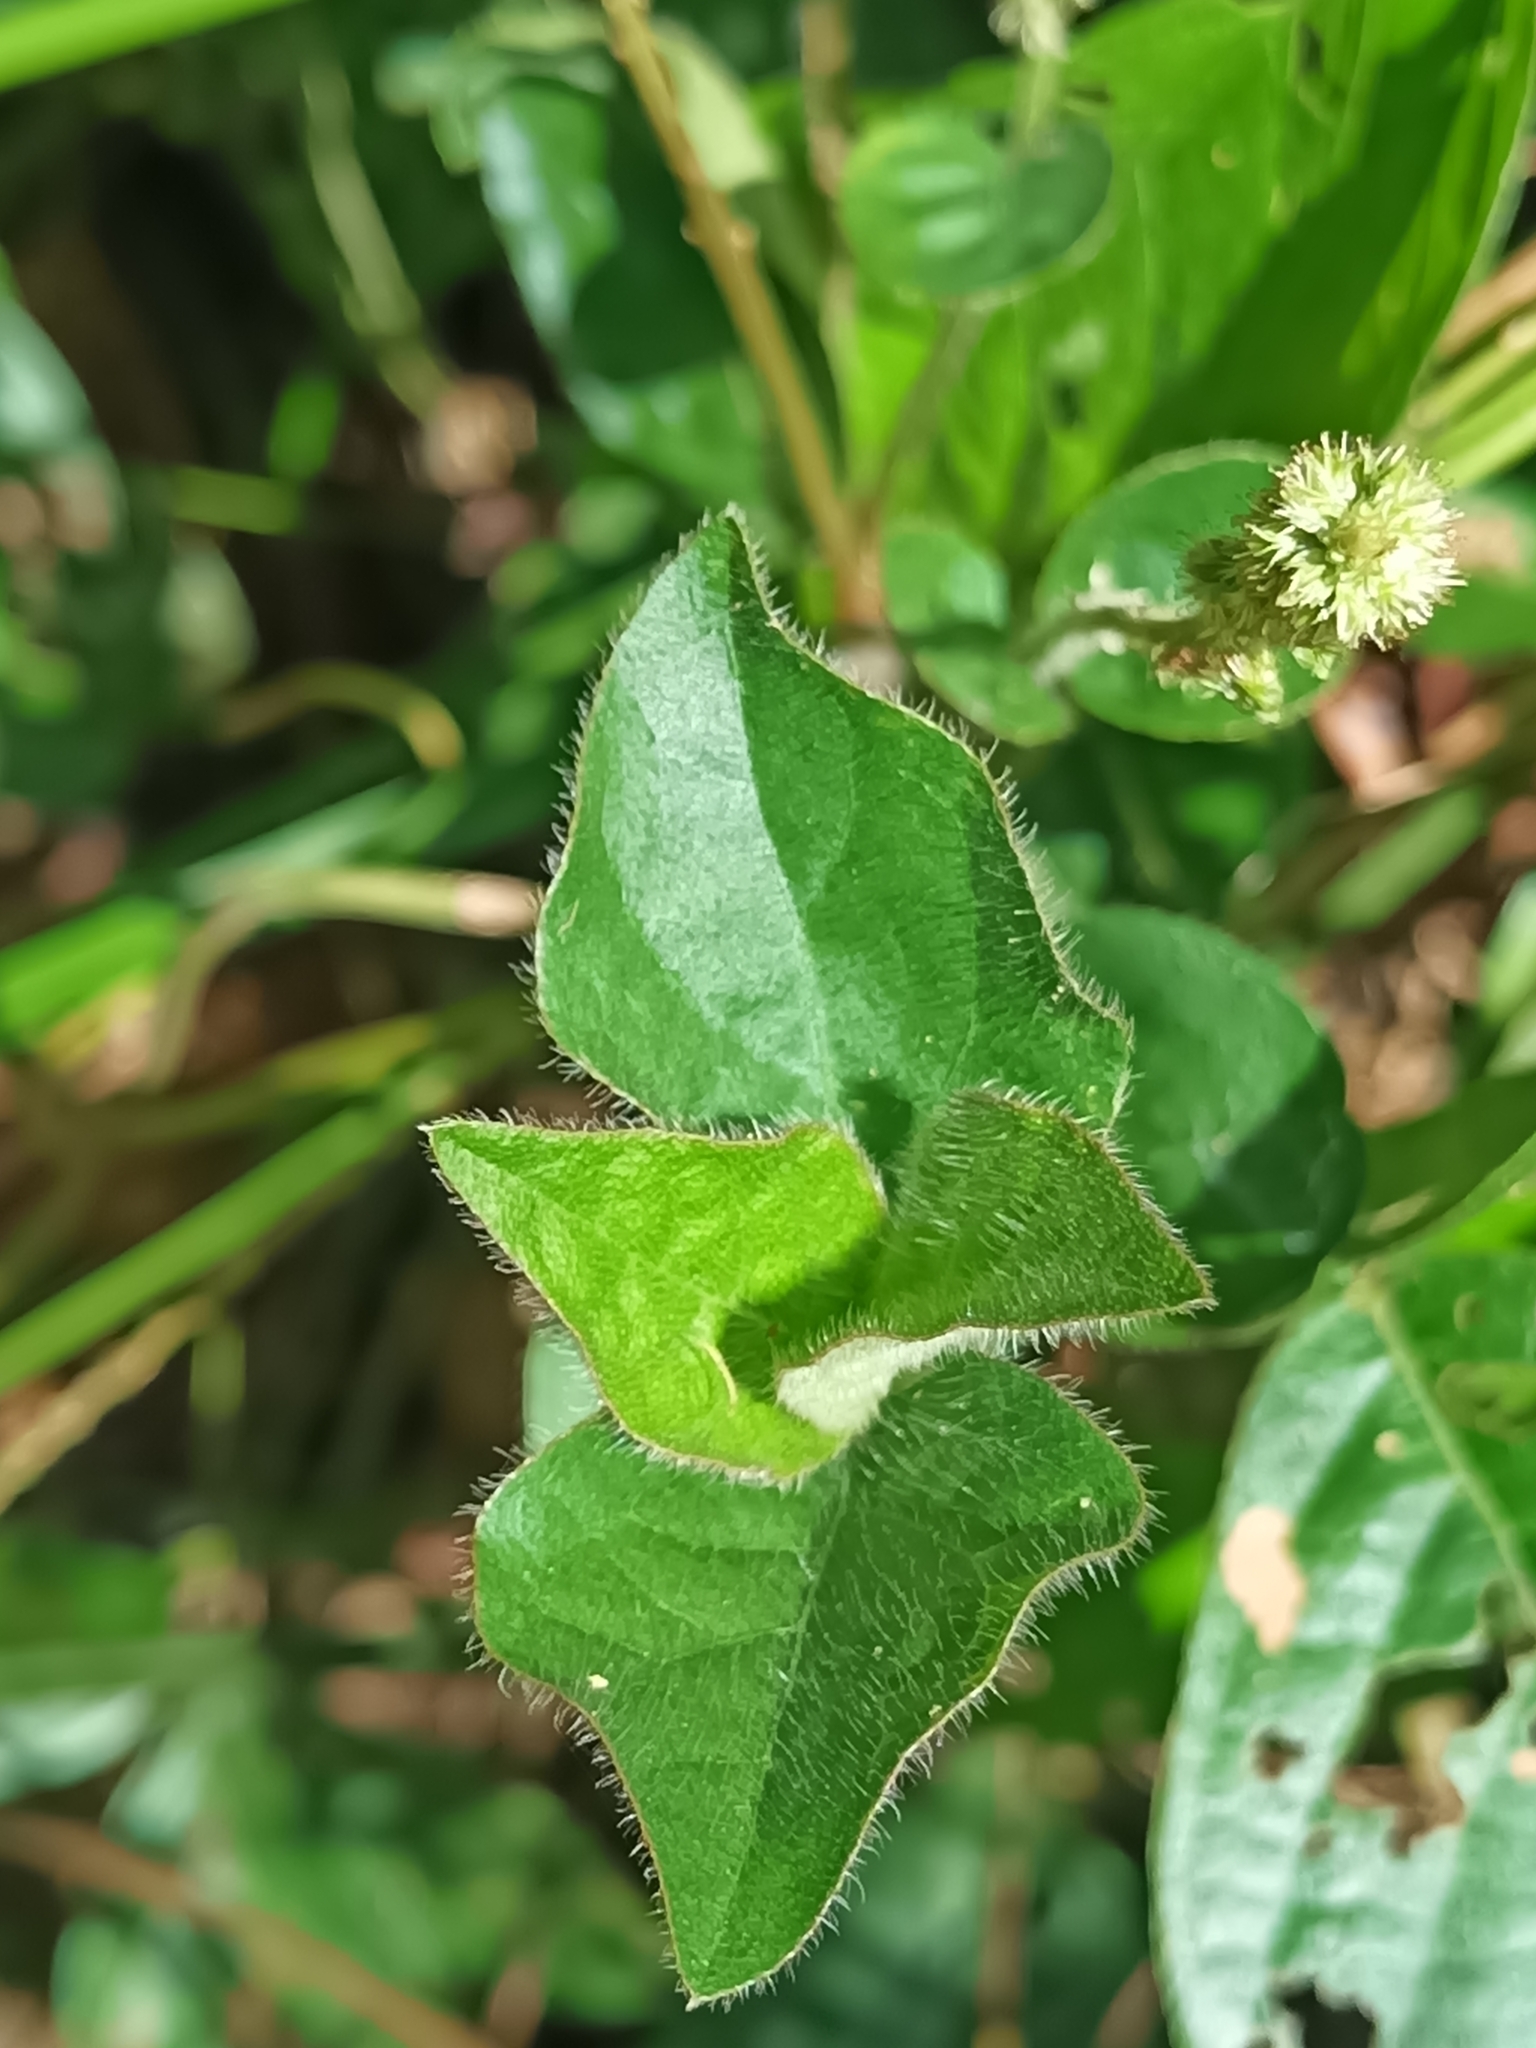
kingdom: Plantae
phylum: Tracheophyta
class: Magnoliopsida
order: Caryophyllales
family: Amaranthaceae
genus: Cyathula
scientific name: Cyathula prostrata
